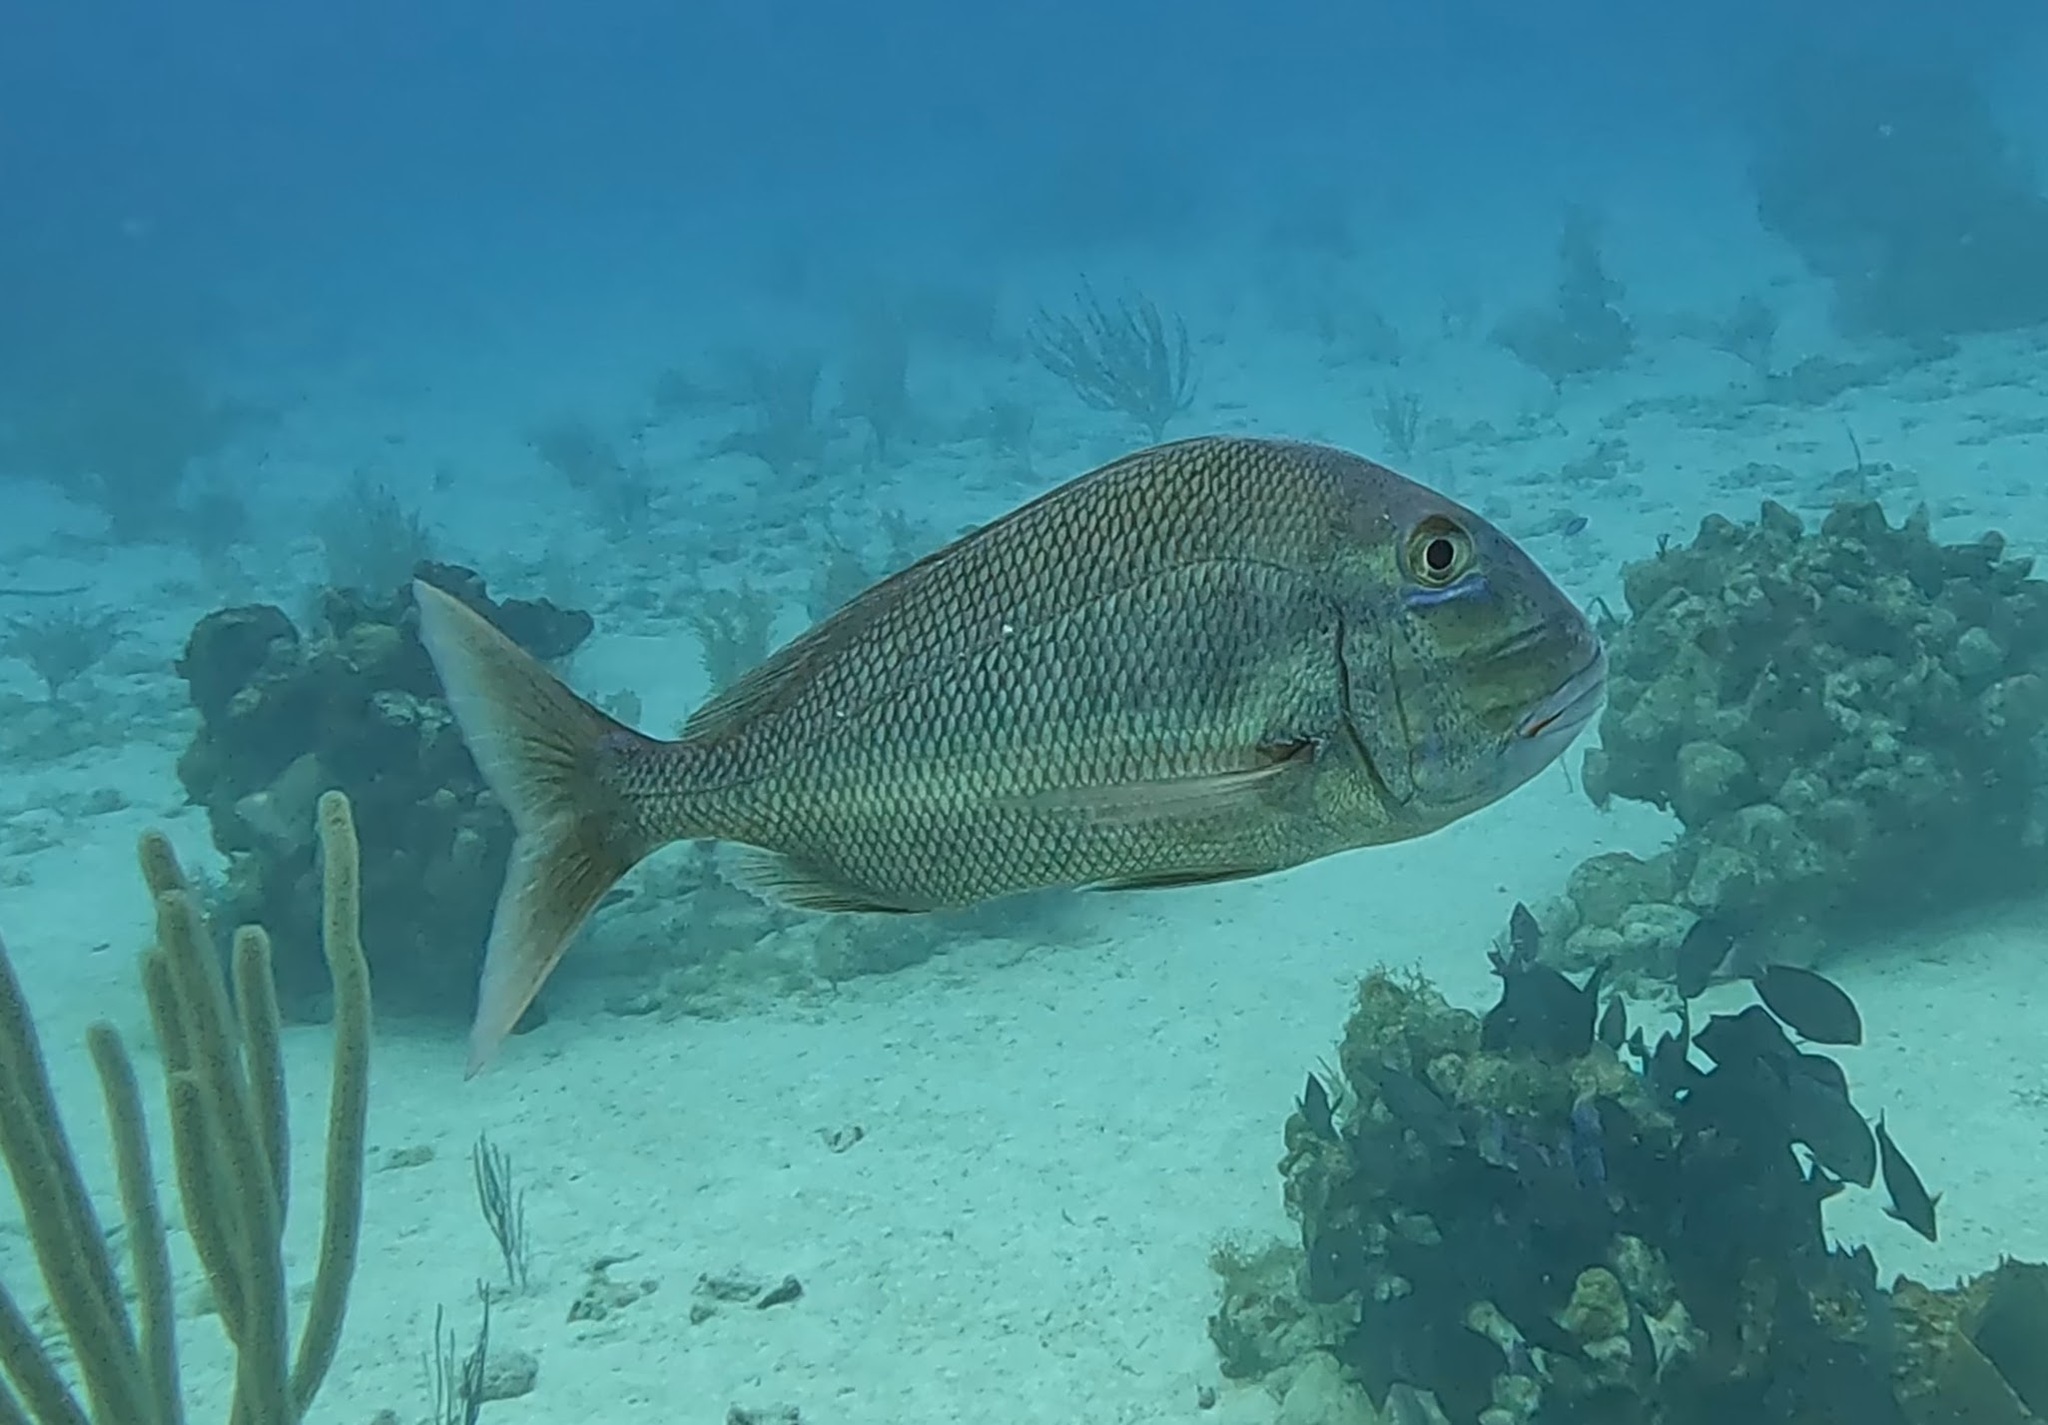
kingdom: Animalia
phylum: Chordata
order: Perciformes
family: Sparidae
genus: Calamus
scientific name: Calamus bajonado
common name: Jolthead porgy
